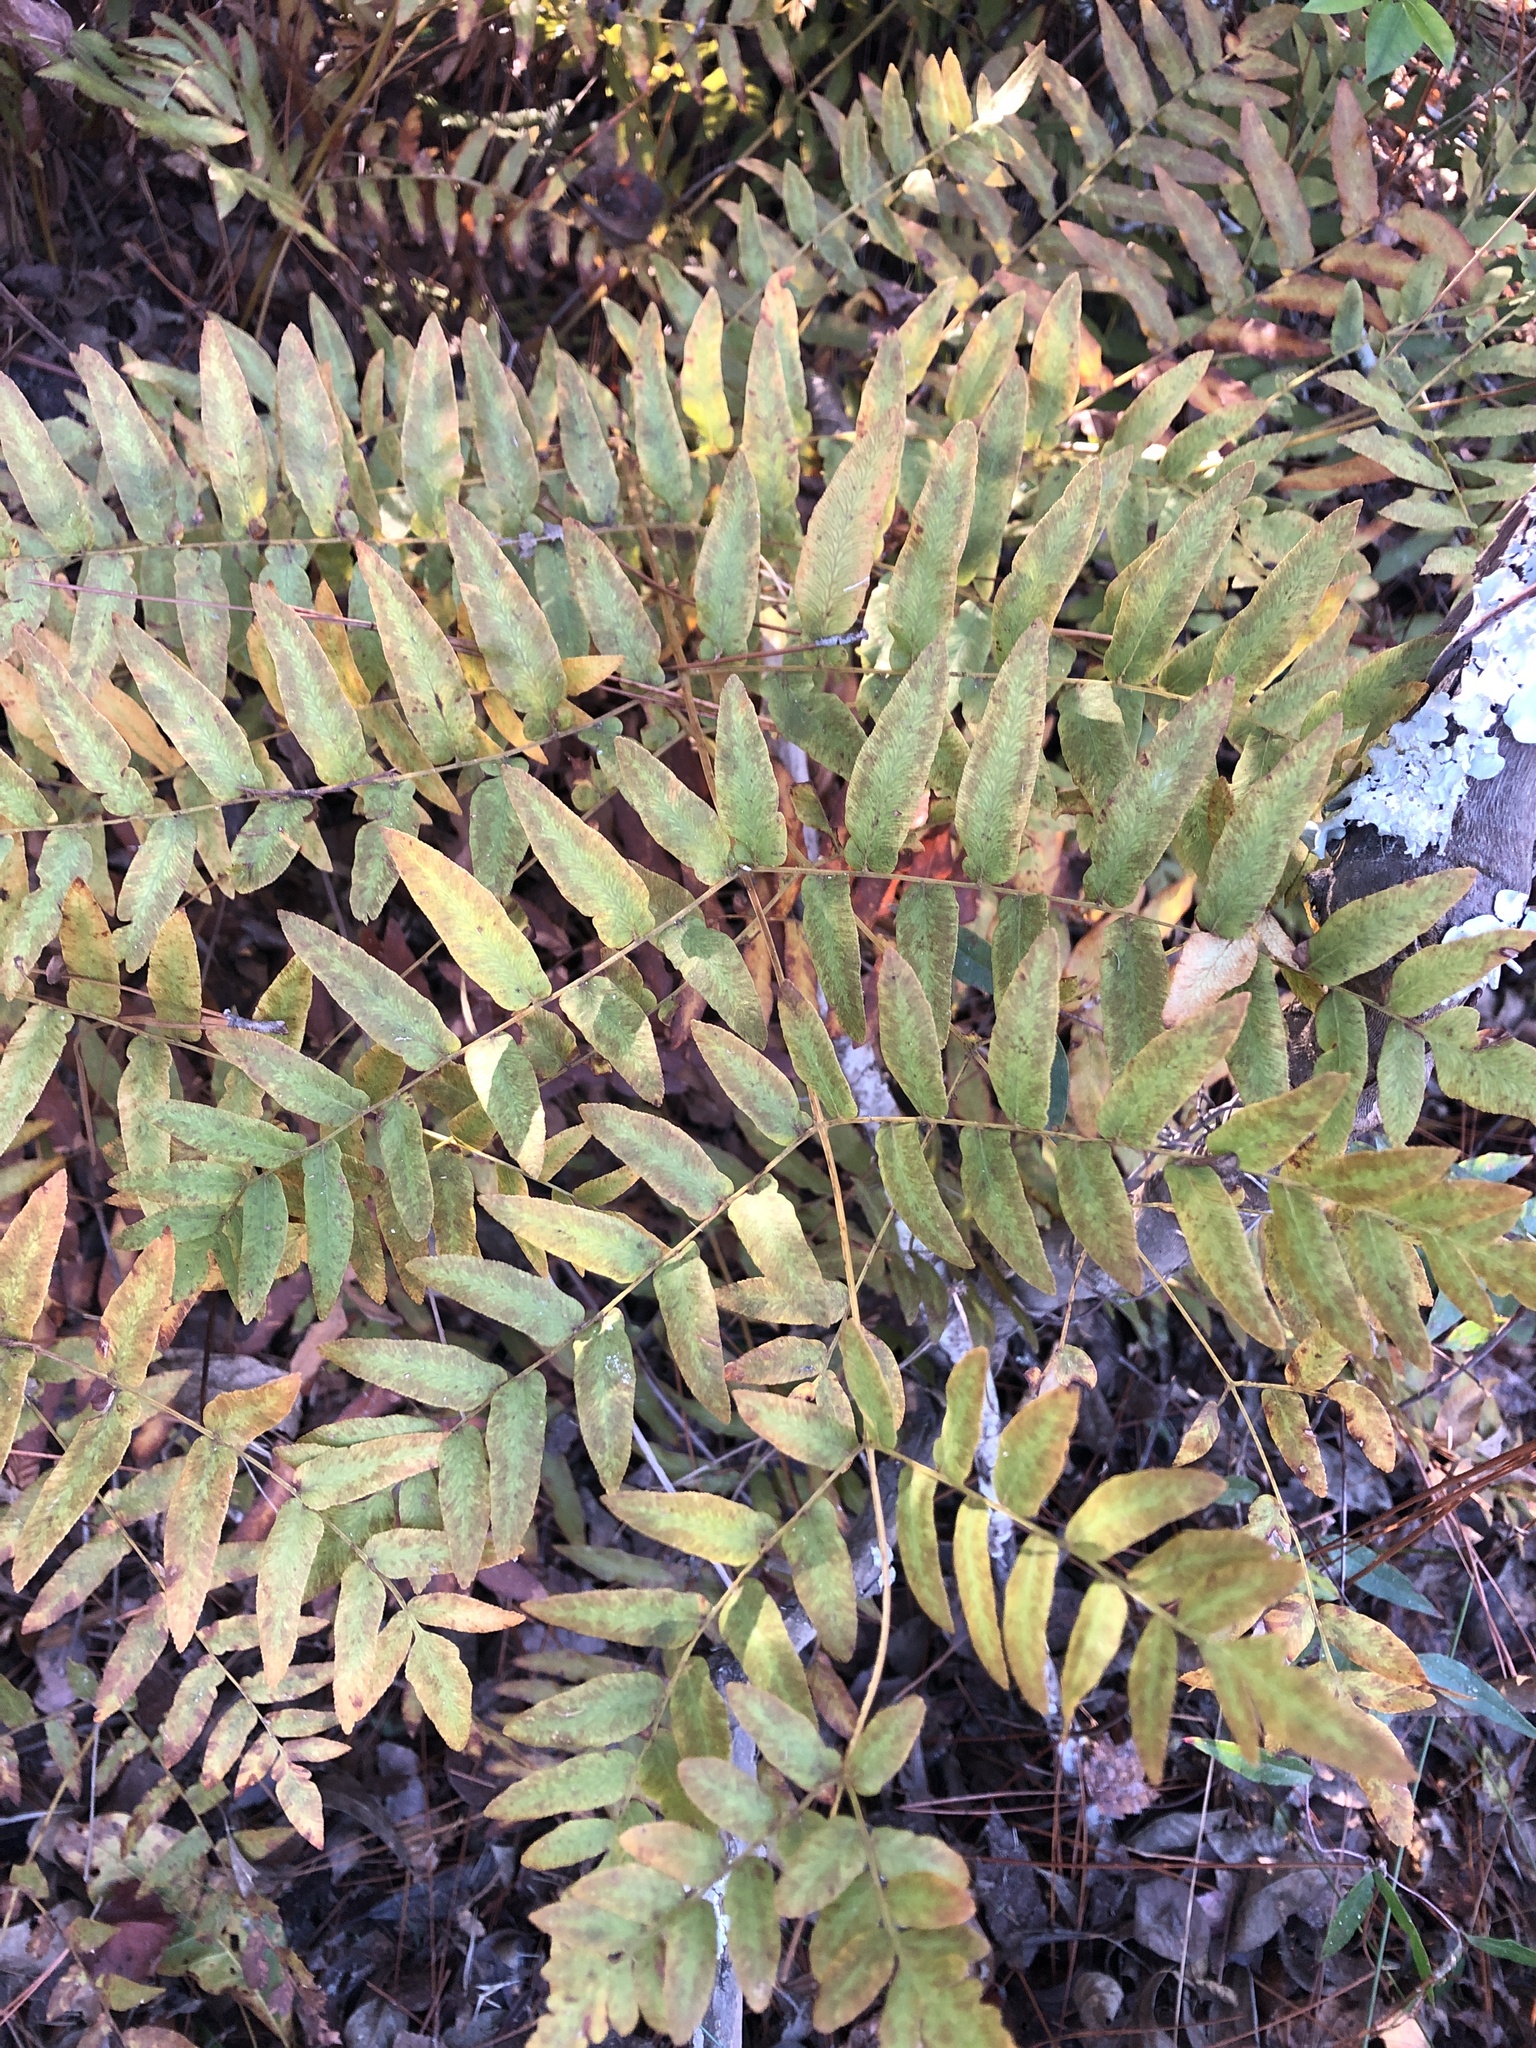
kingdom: Plantae
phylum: Tracheophyta
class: Polypodiopsida
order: Osmundales
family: Osmundaceae
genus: Osmunda
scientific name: Osmunda spectabilis
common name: American royal fern
